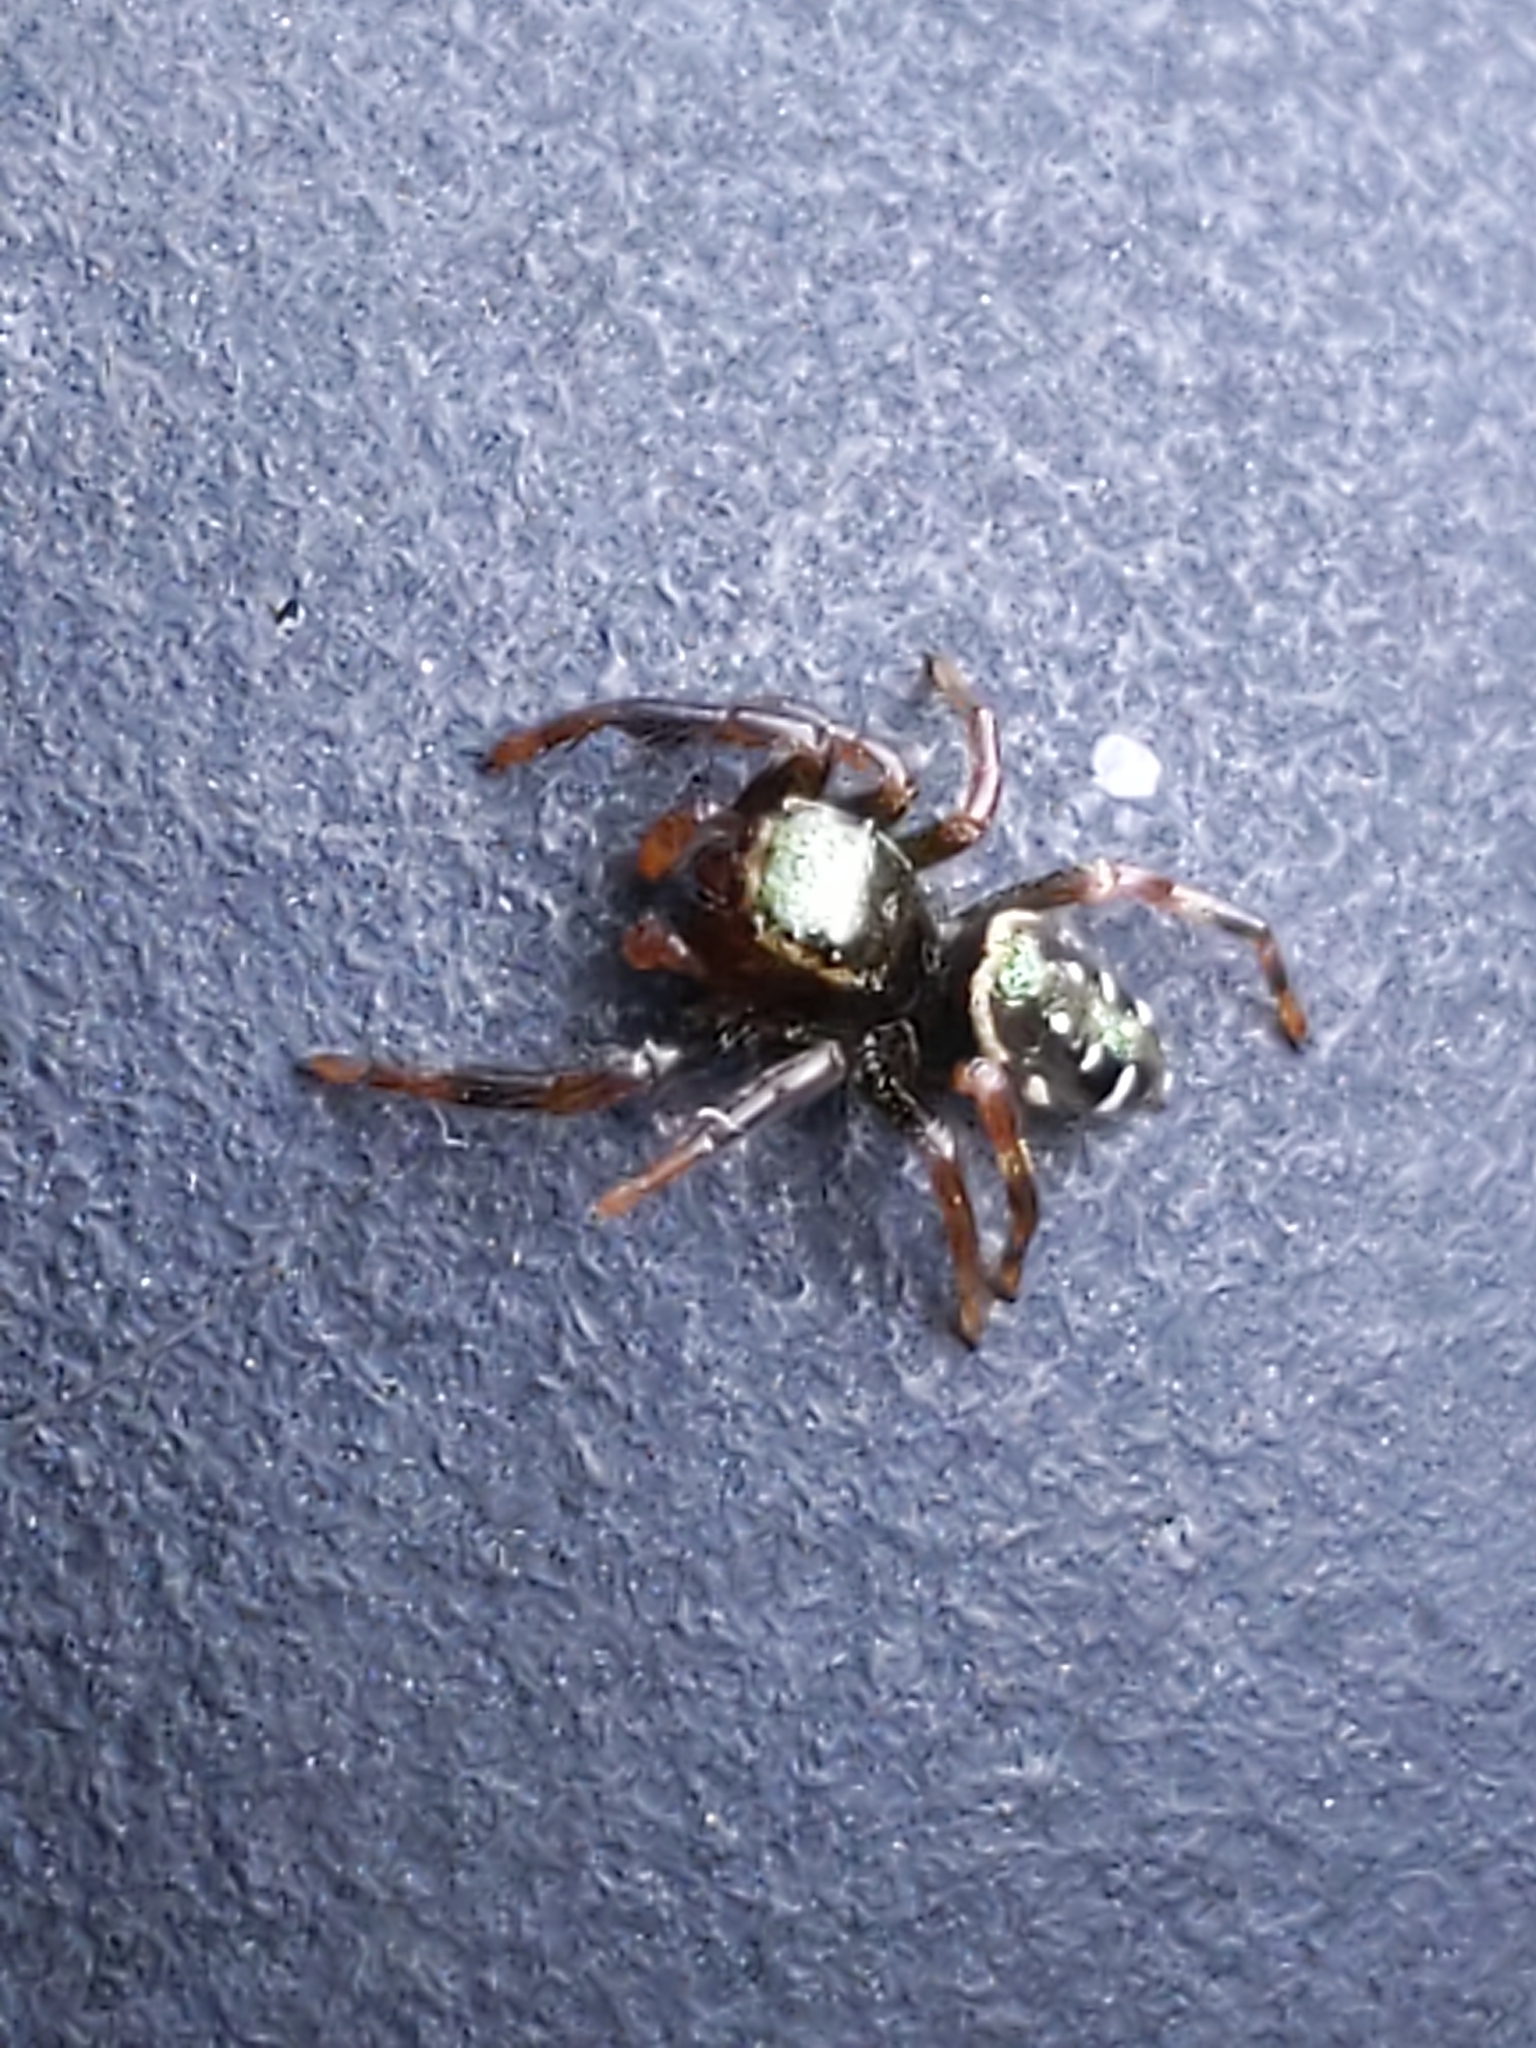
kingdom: Animalia
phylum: Arthropoda
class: Arachnida
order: Araneae
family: Salticidae
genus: Paraphidippus
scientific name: Paraphidippus aurantius
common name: Jumping spiders
